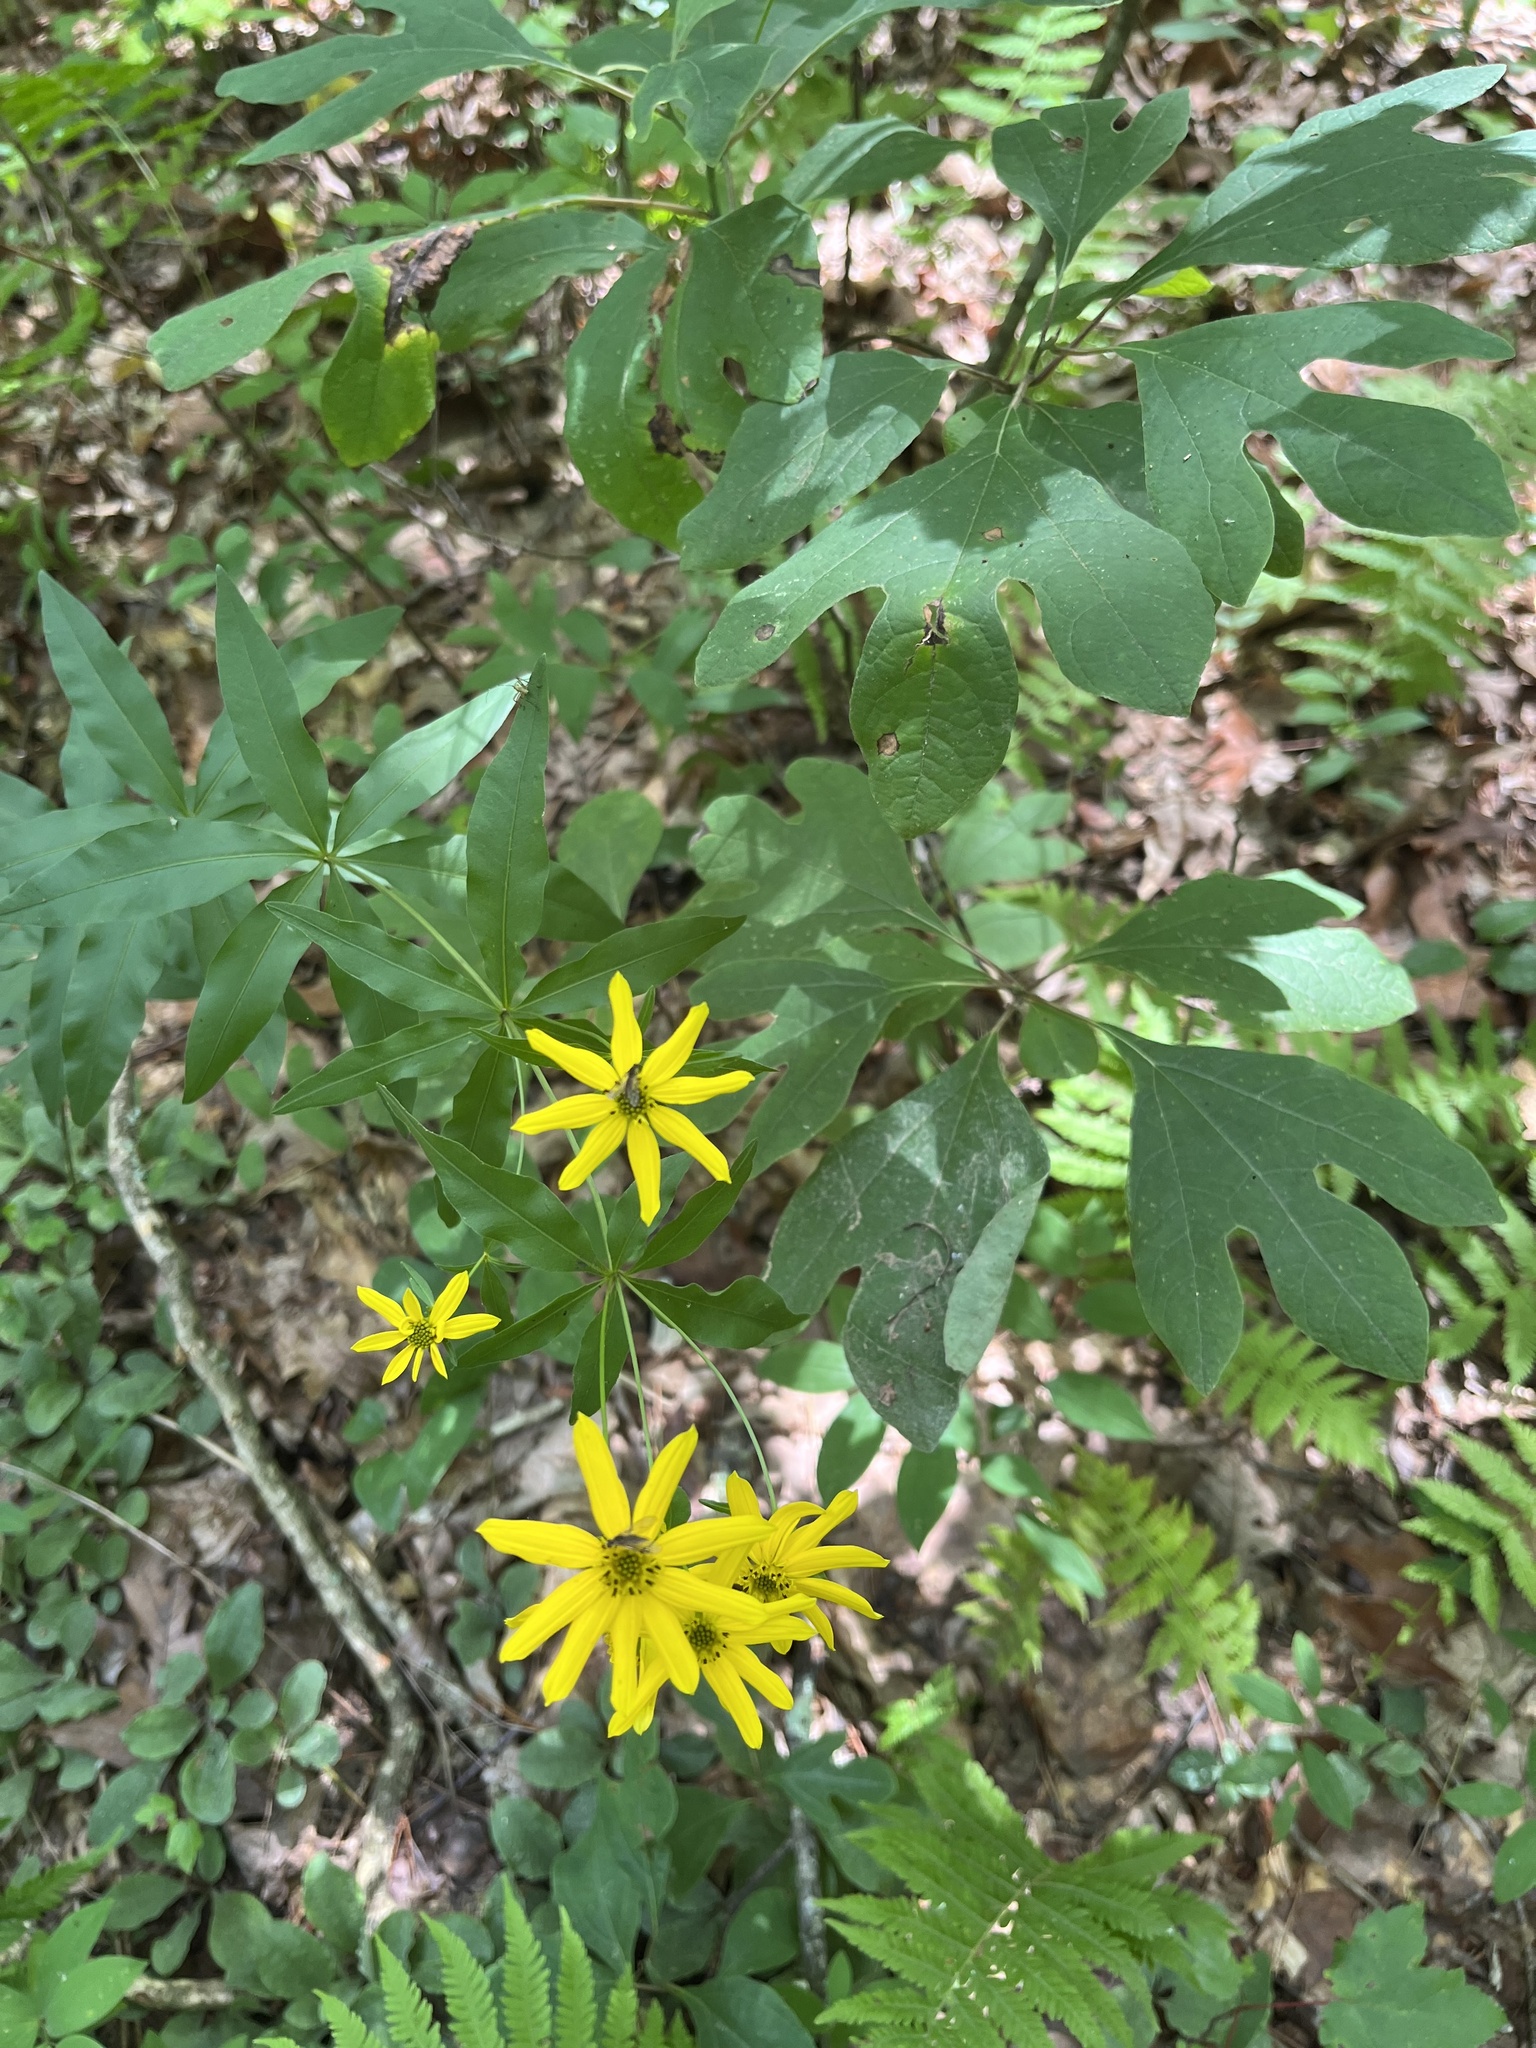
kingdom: Plantae
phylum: Tracheophyta
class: Magnoliopsida
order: Asterales
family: Asteraceae
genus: Coreopsis
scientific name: Coreopsis major
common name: Forest tickseed
